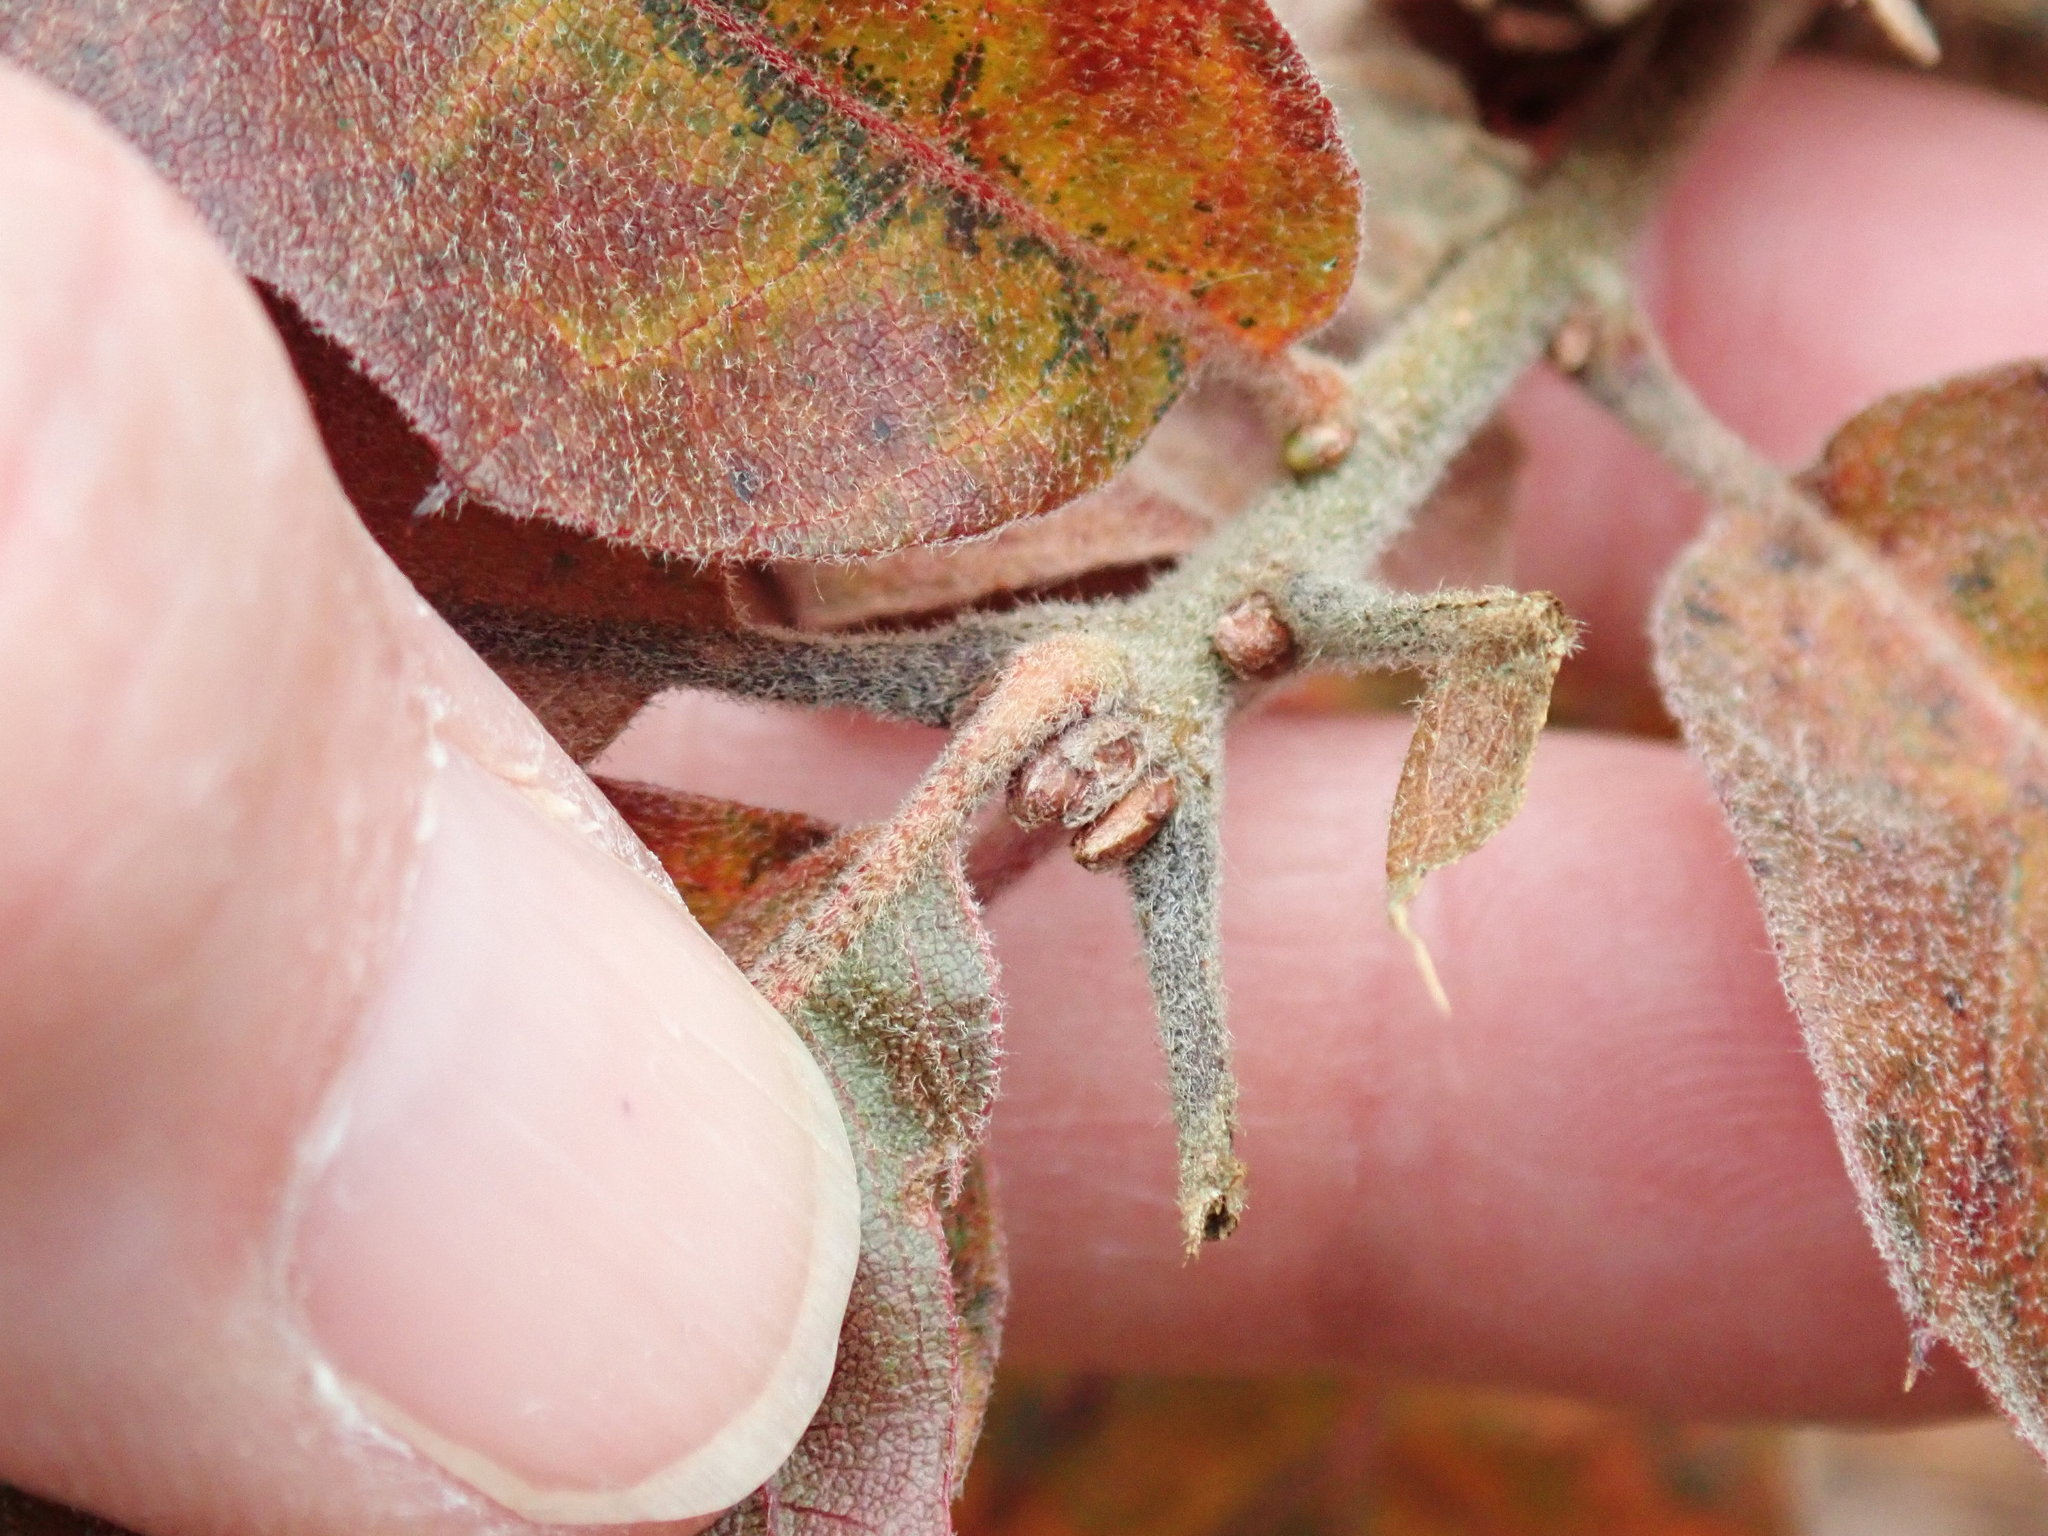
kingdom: Plantae
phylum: Tracheophyta
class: Magnoliopsida
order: Fagales
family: Fagaceae
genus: Quercus
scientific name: Quercus ilicifolia
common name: Bear oak
